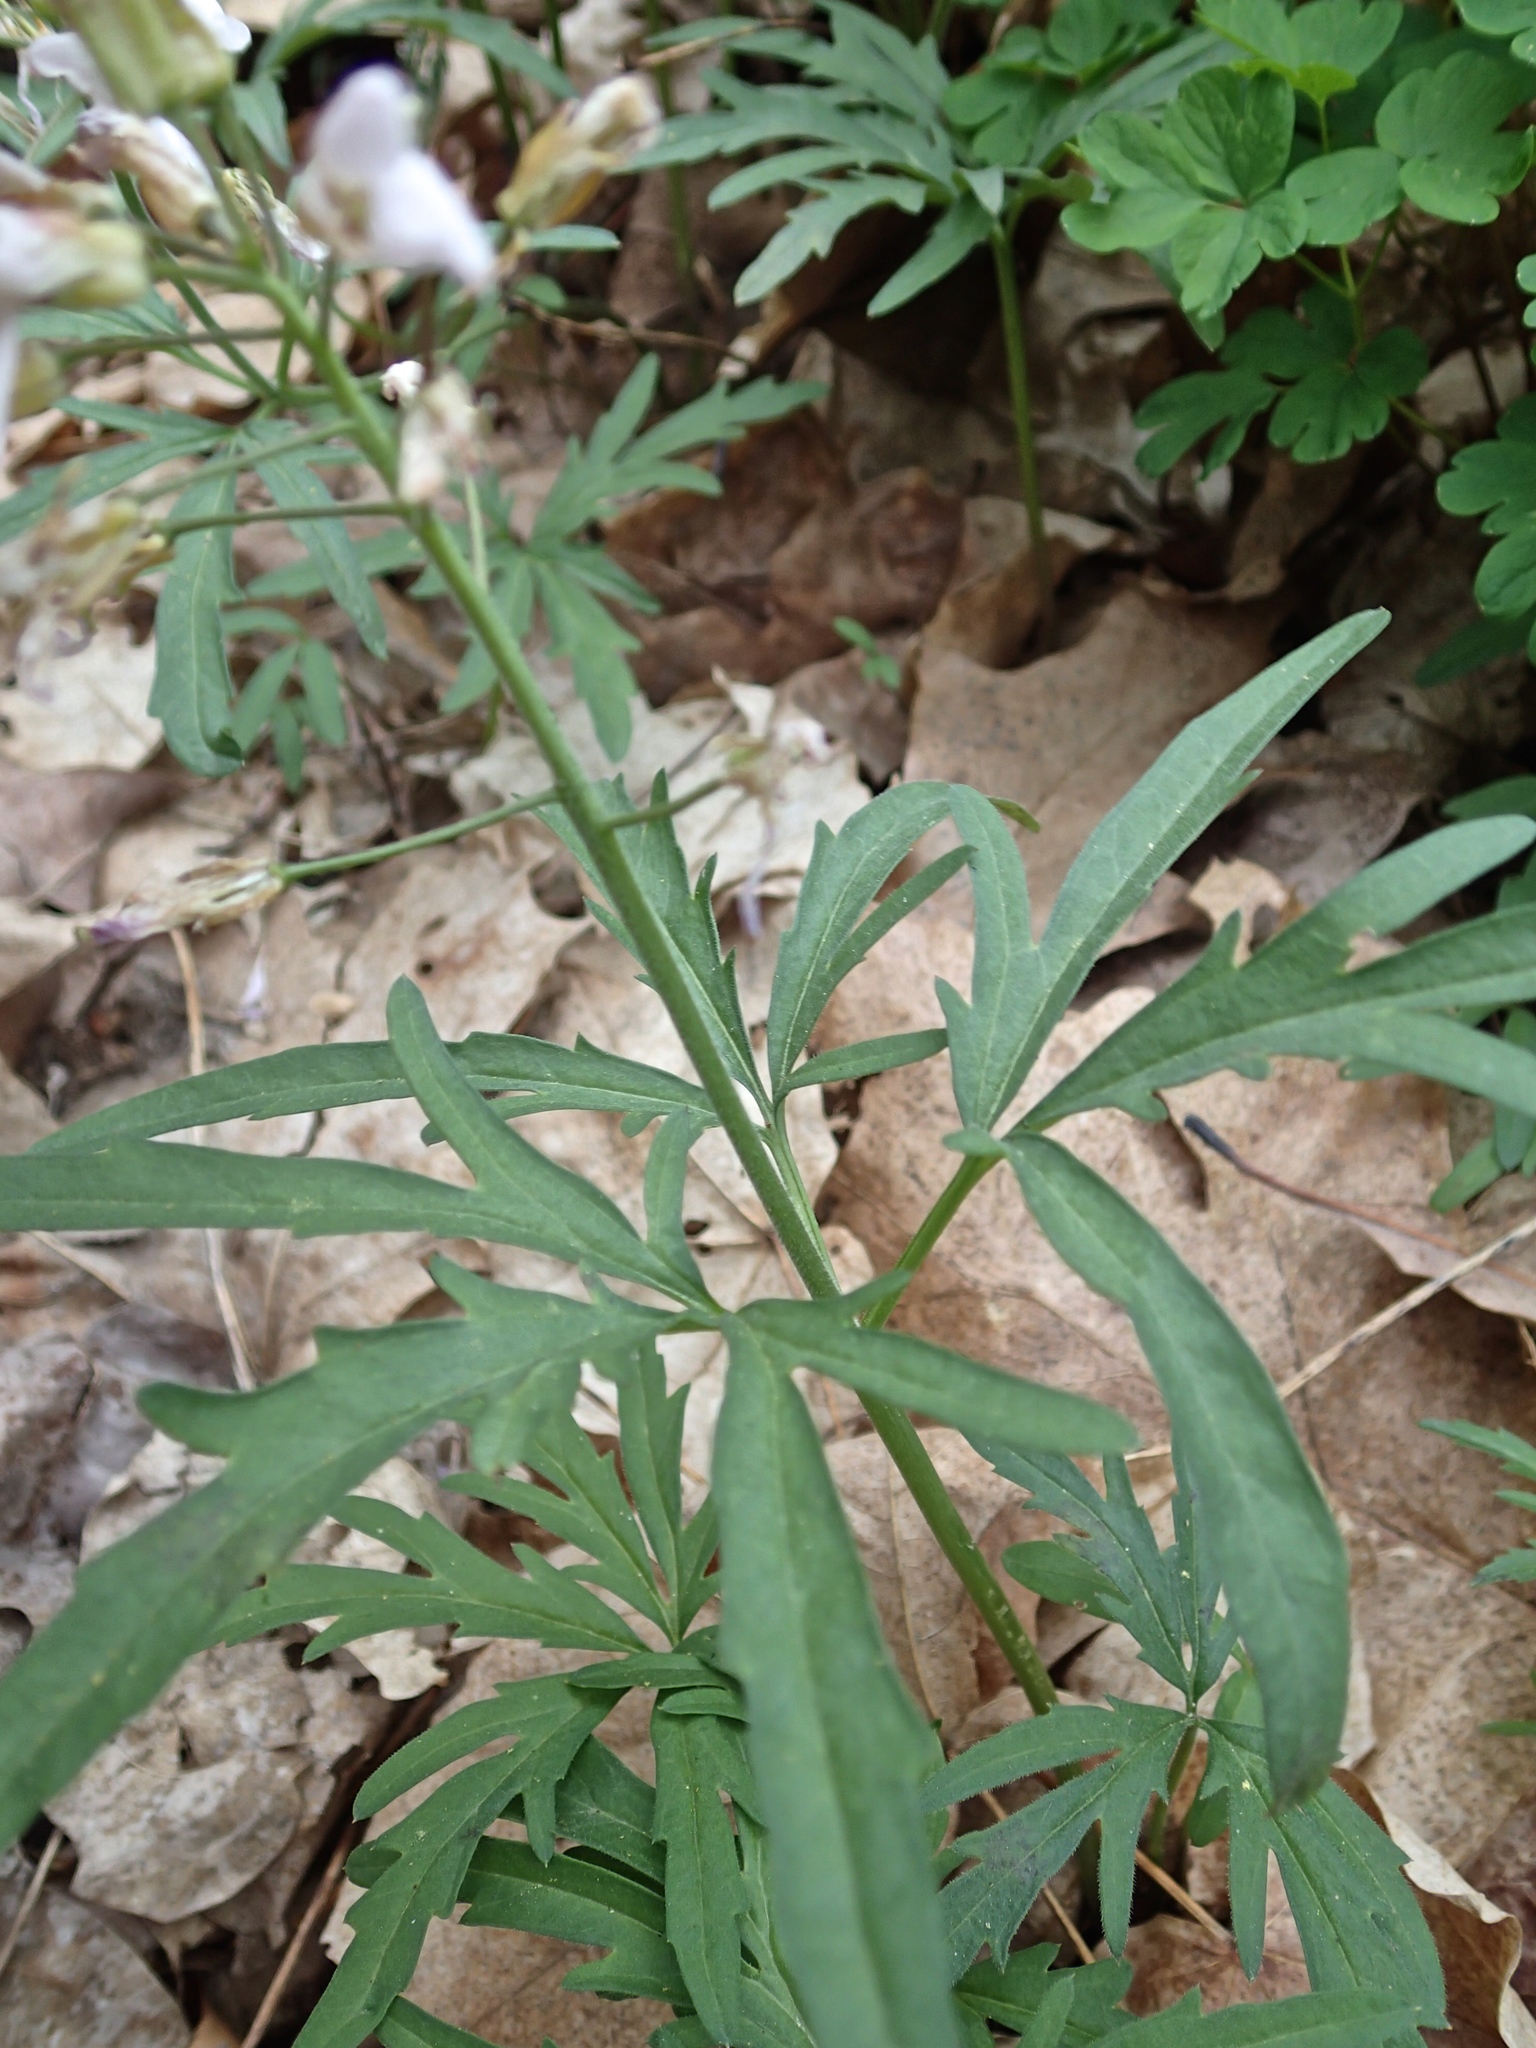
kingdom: Plantae
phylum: Tracheophyta
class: Magnoliopsida
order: Brassicales
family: Brassicaceae
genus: Cardamine
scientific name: Cardamine concatenata
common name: Cut-leaf toothcup
